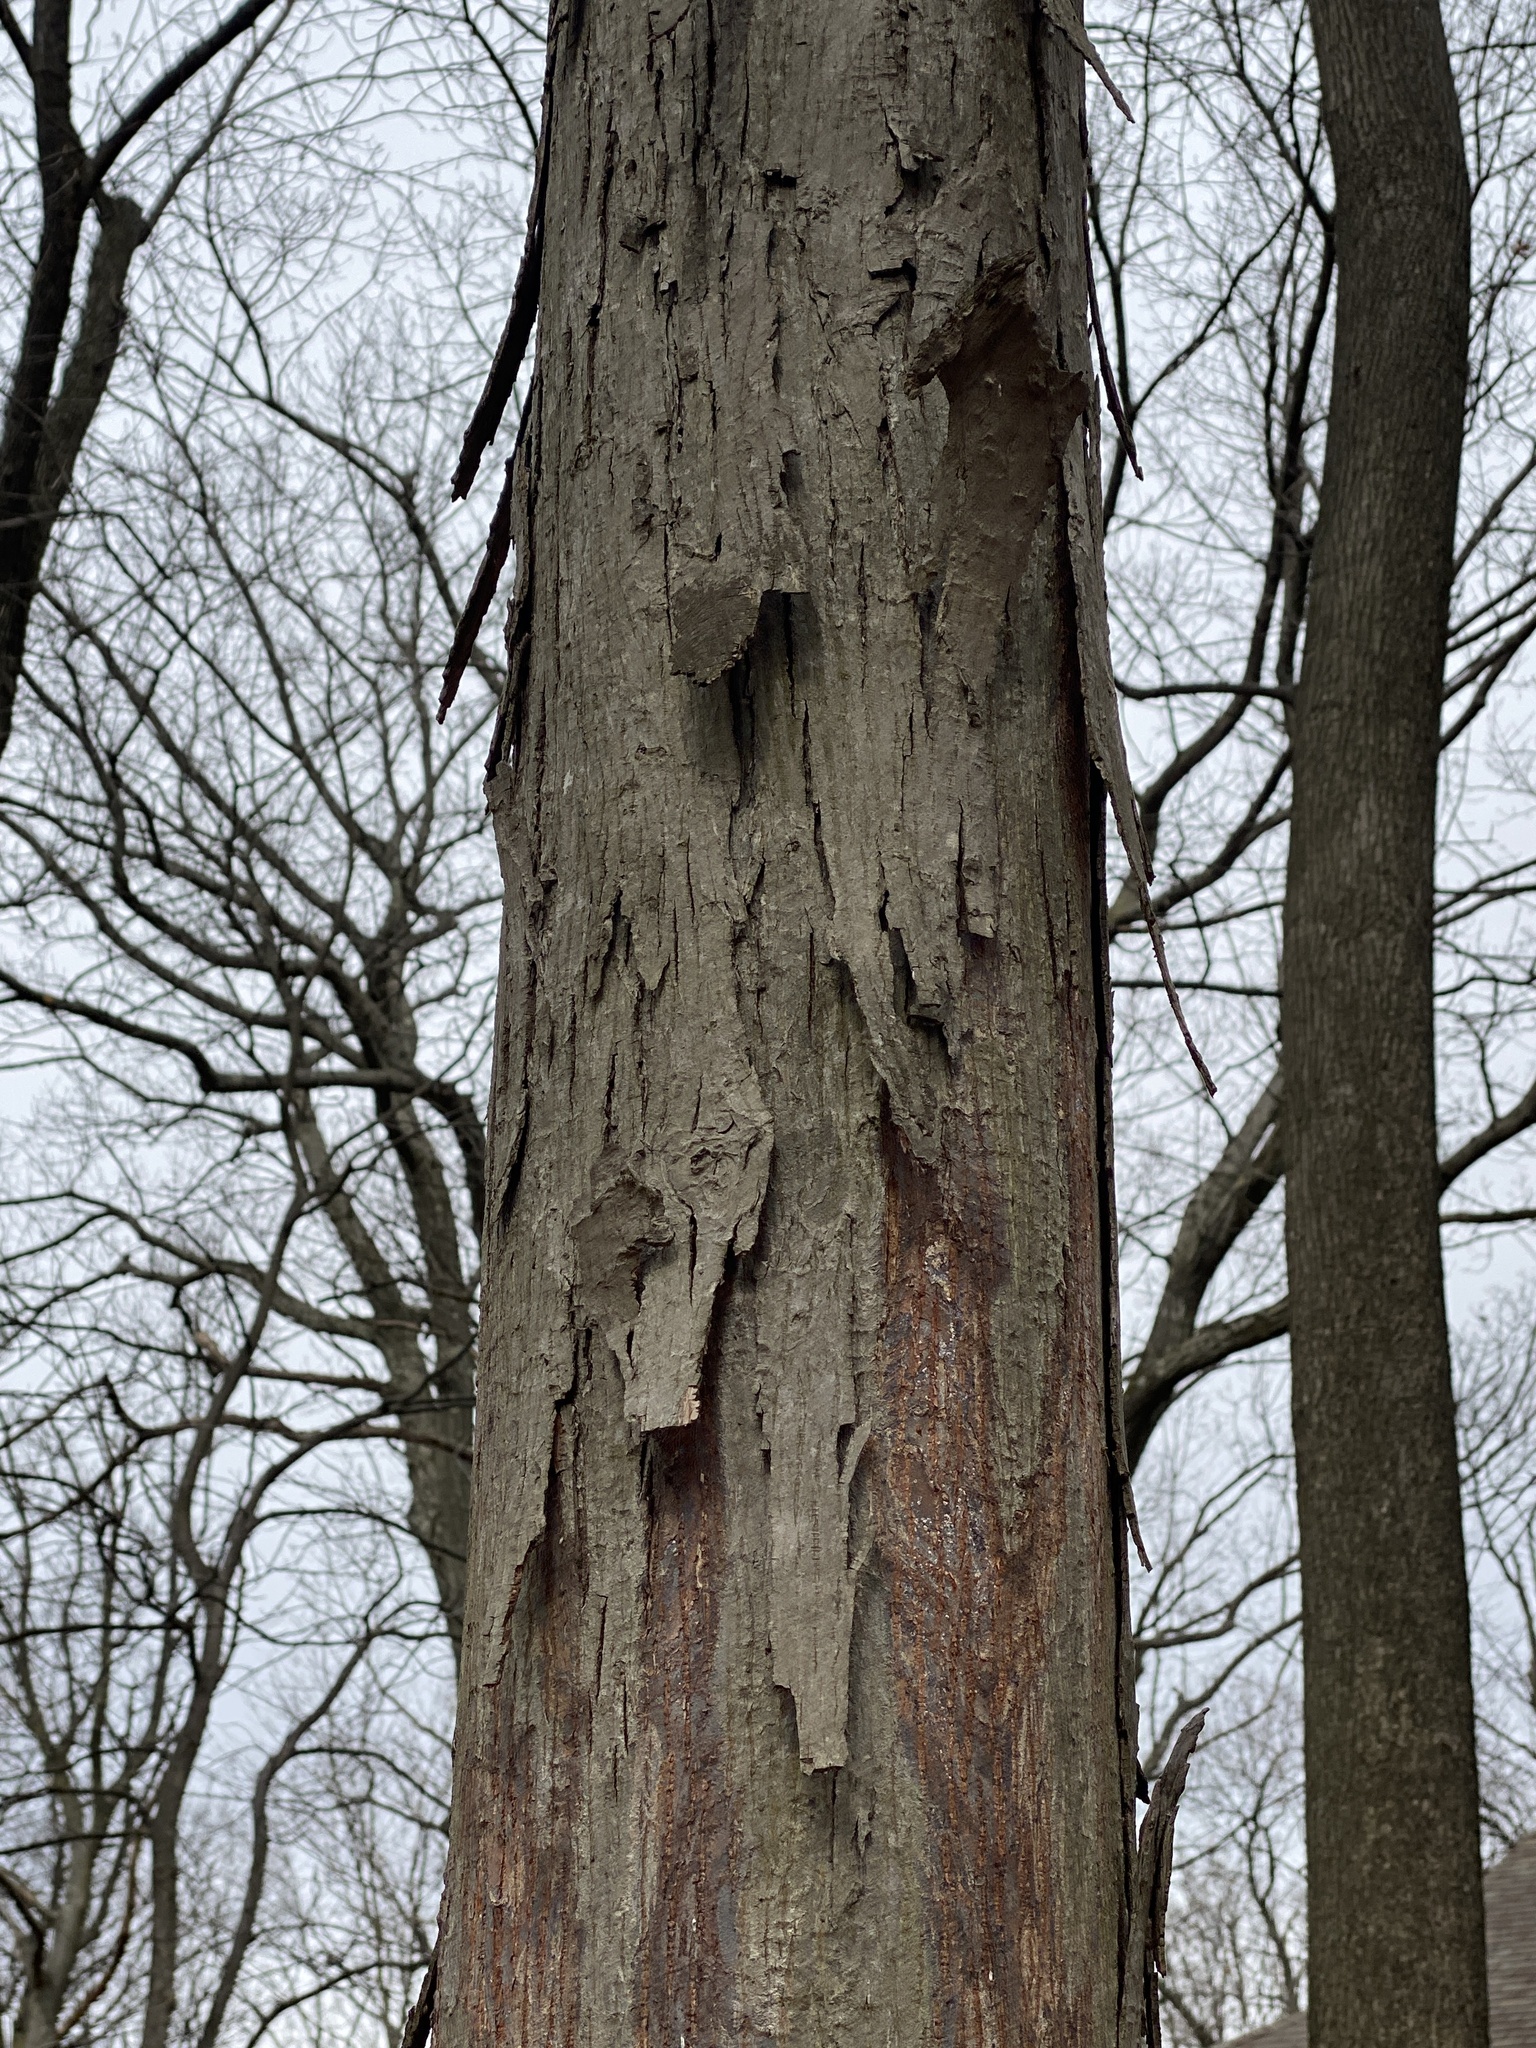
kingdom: Plantae
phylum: Tracheophyta
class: Magnoliopsida
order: Fagales
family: Juglandaceae
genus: Carya
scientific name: Carya ovata
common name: Shagbark hickory
